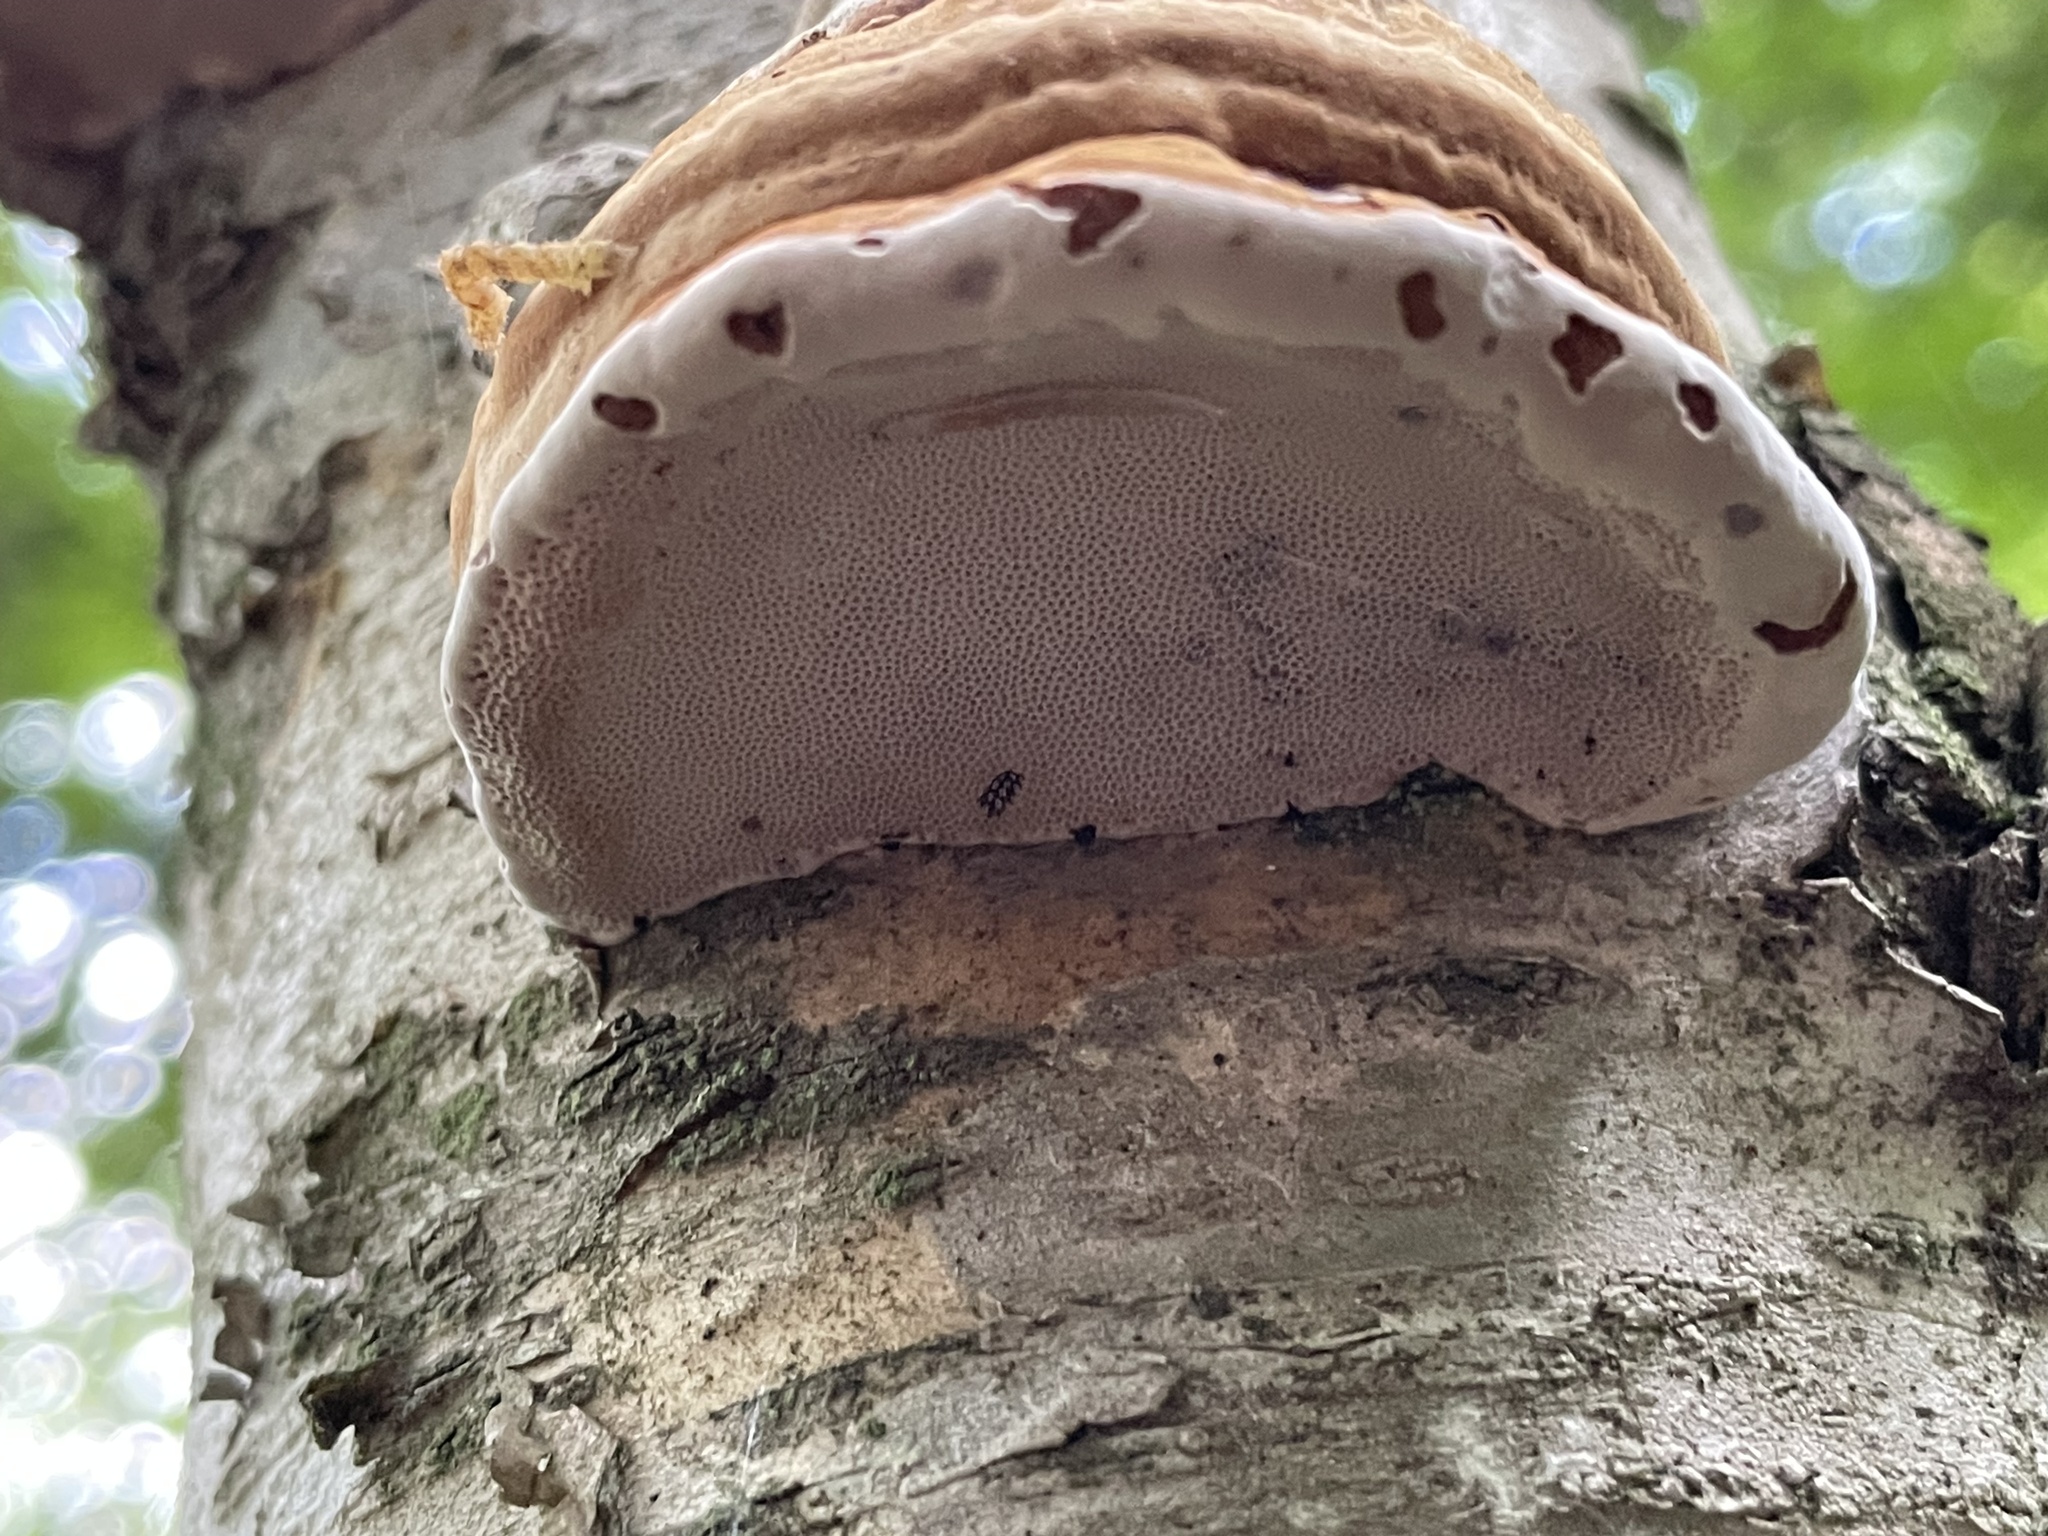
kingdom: Fungi
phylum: Basidiomycota
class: Agaricomycetes
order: Polyporales
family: Polyporaceae
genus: Fomes
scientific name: Fomes fomentarius
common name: Hoof fungus
